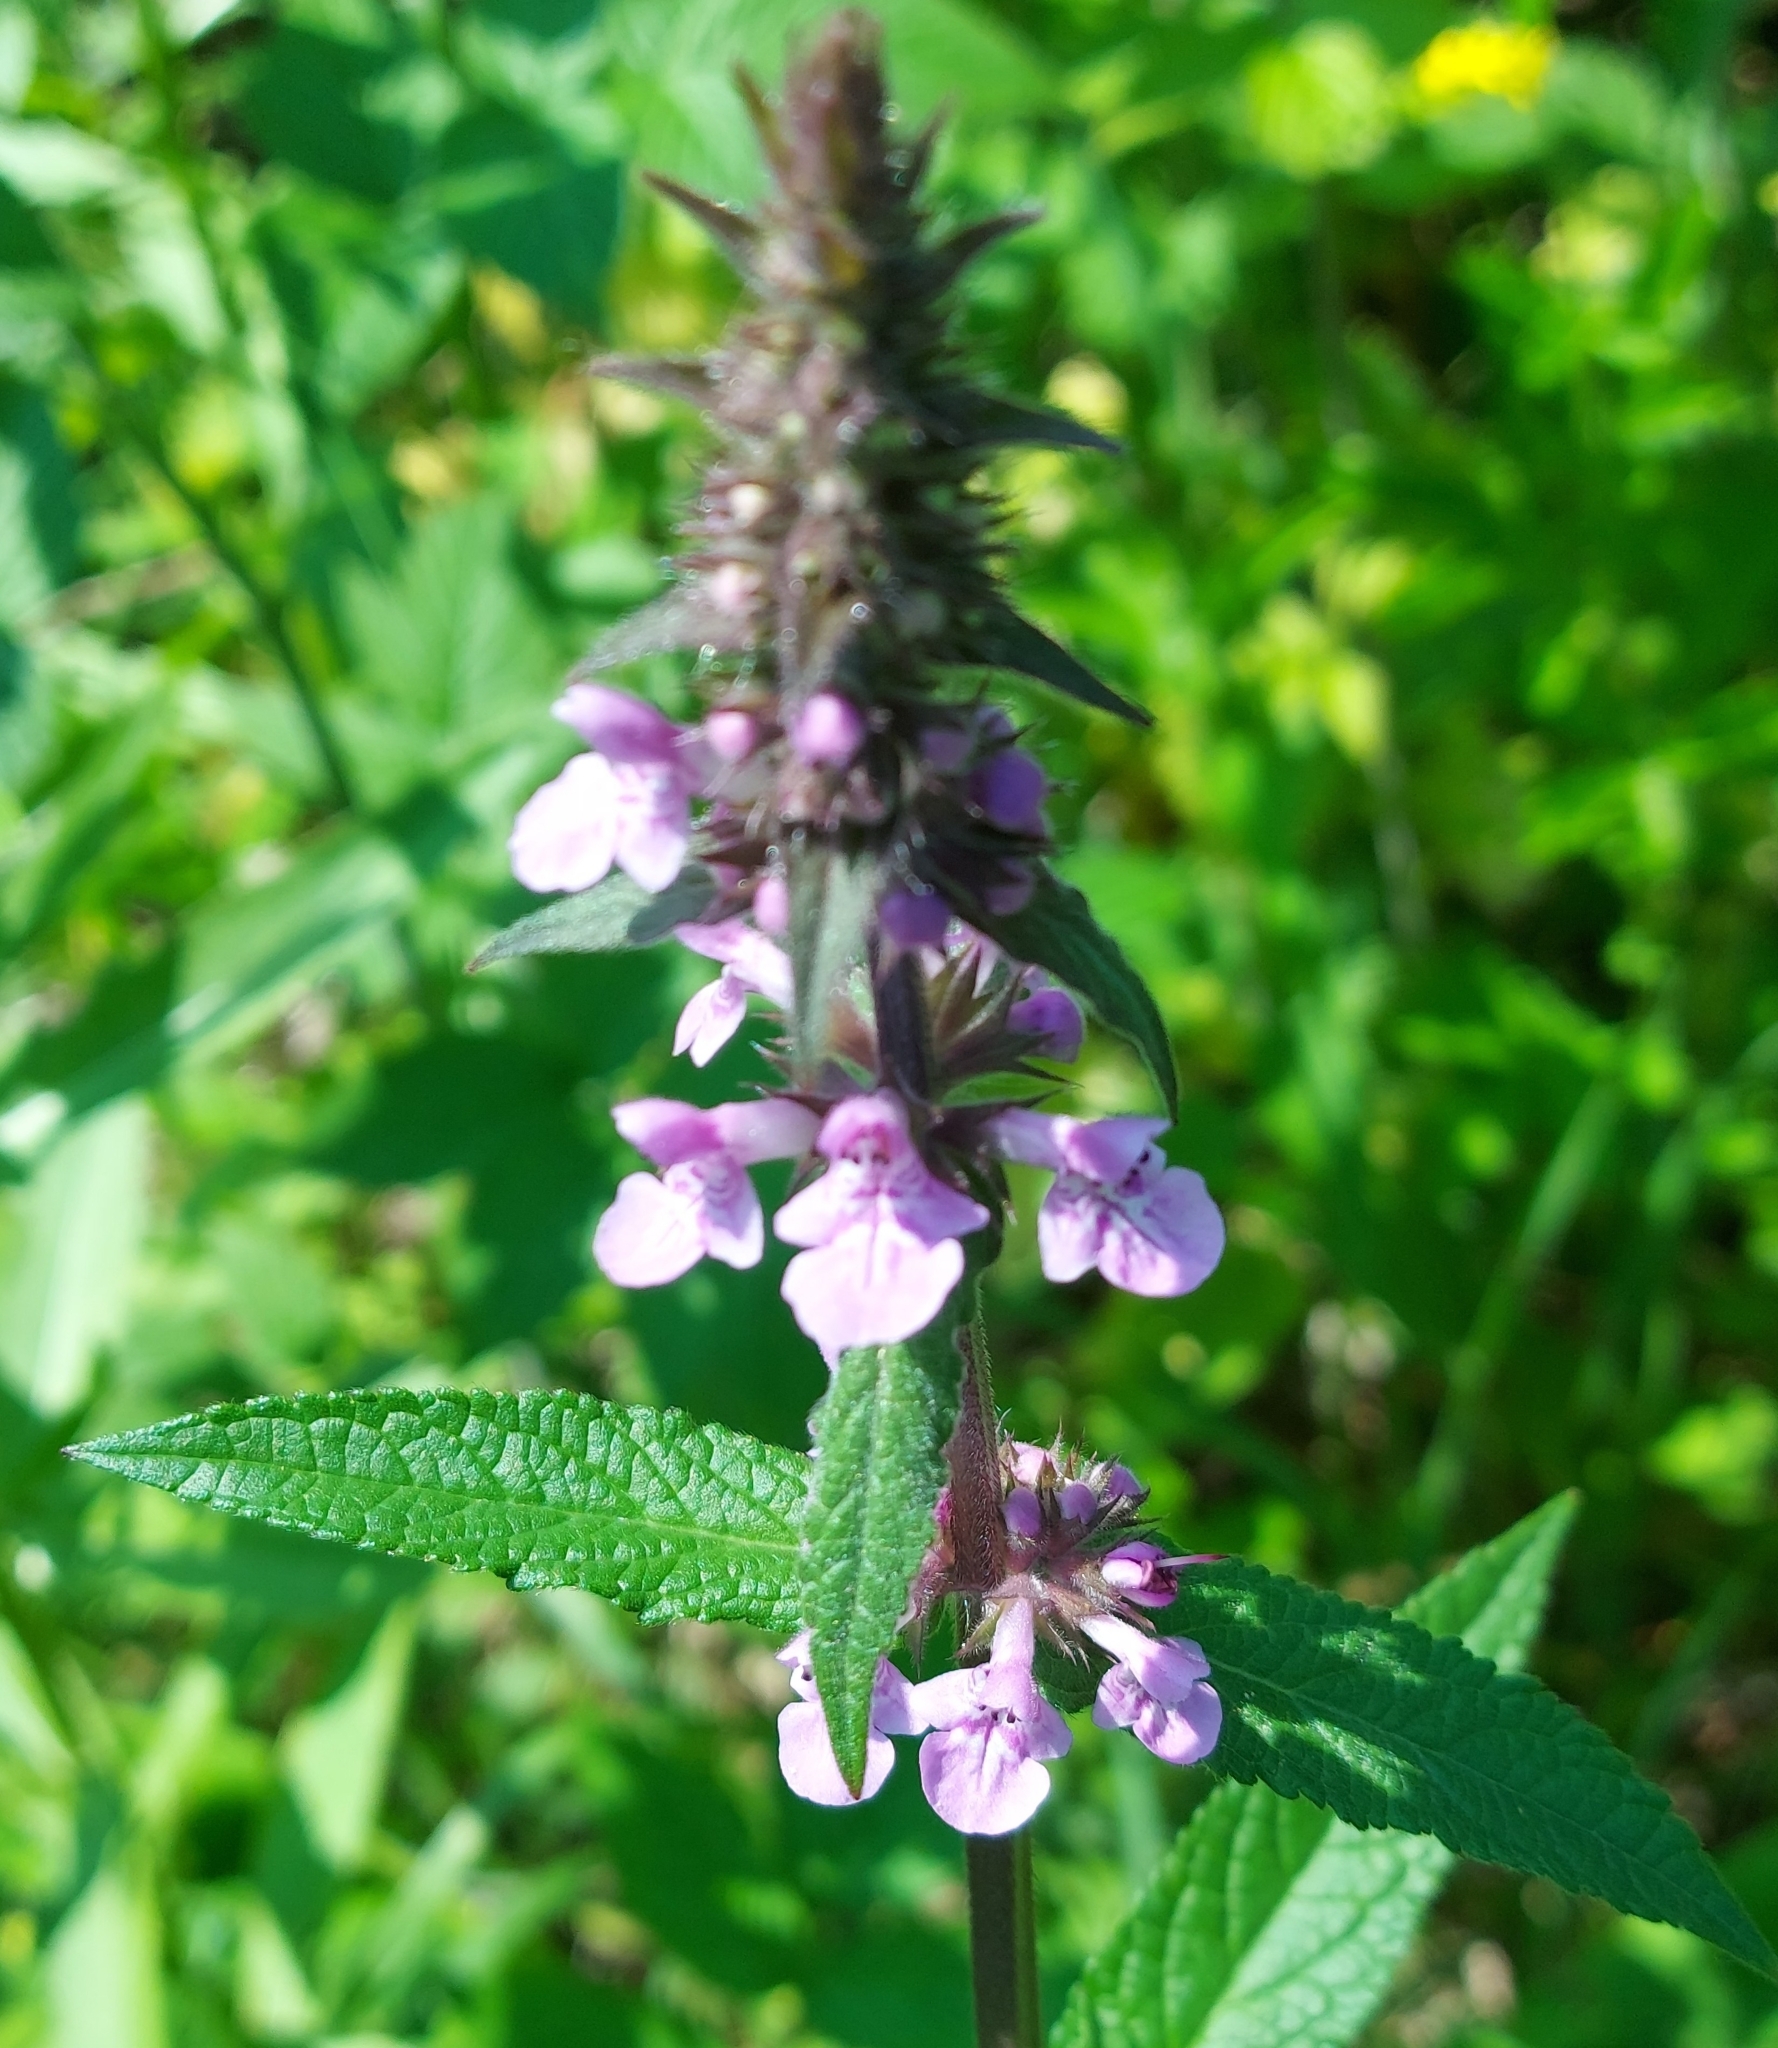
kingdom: Plantae
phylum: Tracheophyta
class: Magnoliopsida
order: Lamiales
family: Lamiaceae
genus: Stachys
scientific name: Stachys palustris
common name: Marsh woundwort
